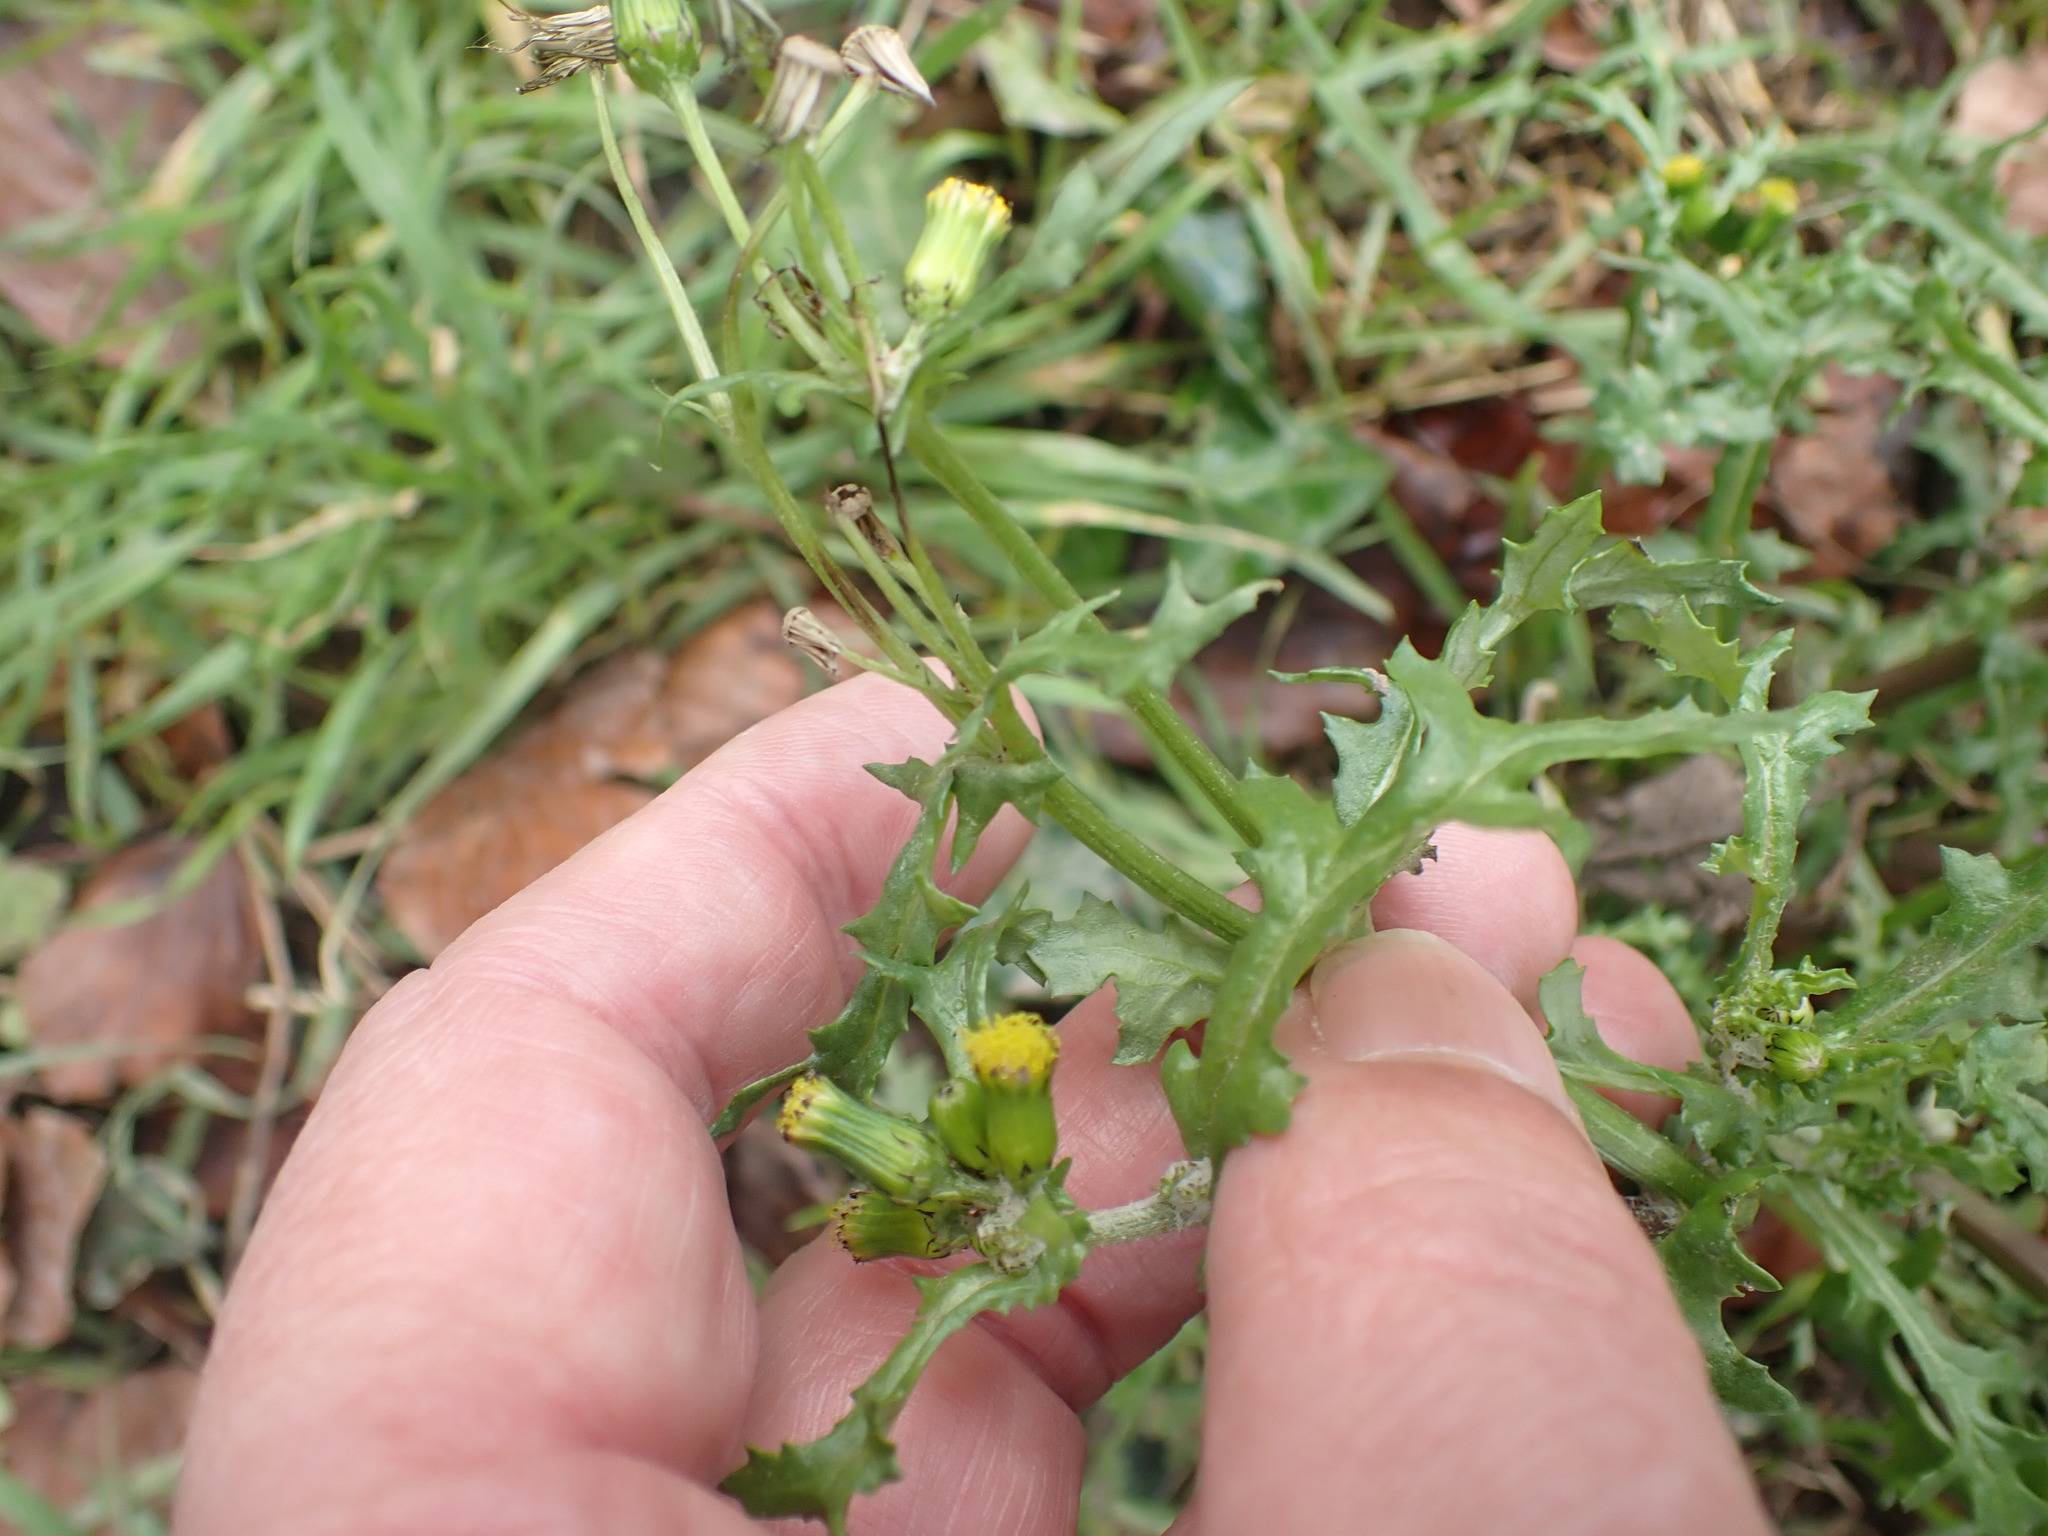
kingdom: Plantae
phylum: Tracheophyta
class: Magnoliopsida
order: Asterales
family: Asteraceae
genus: Senecio
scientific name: Senecio vulgaris
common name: Old-man-in-the-spring
